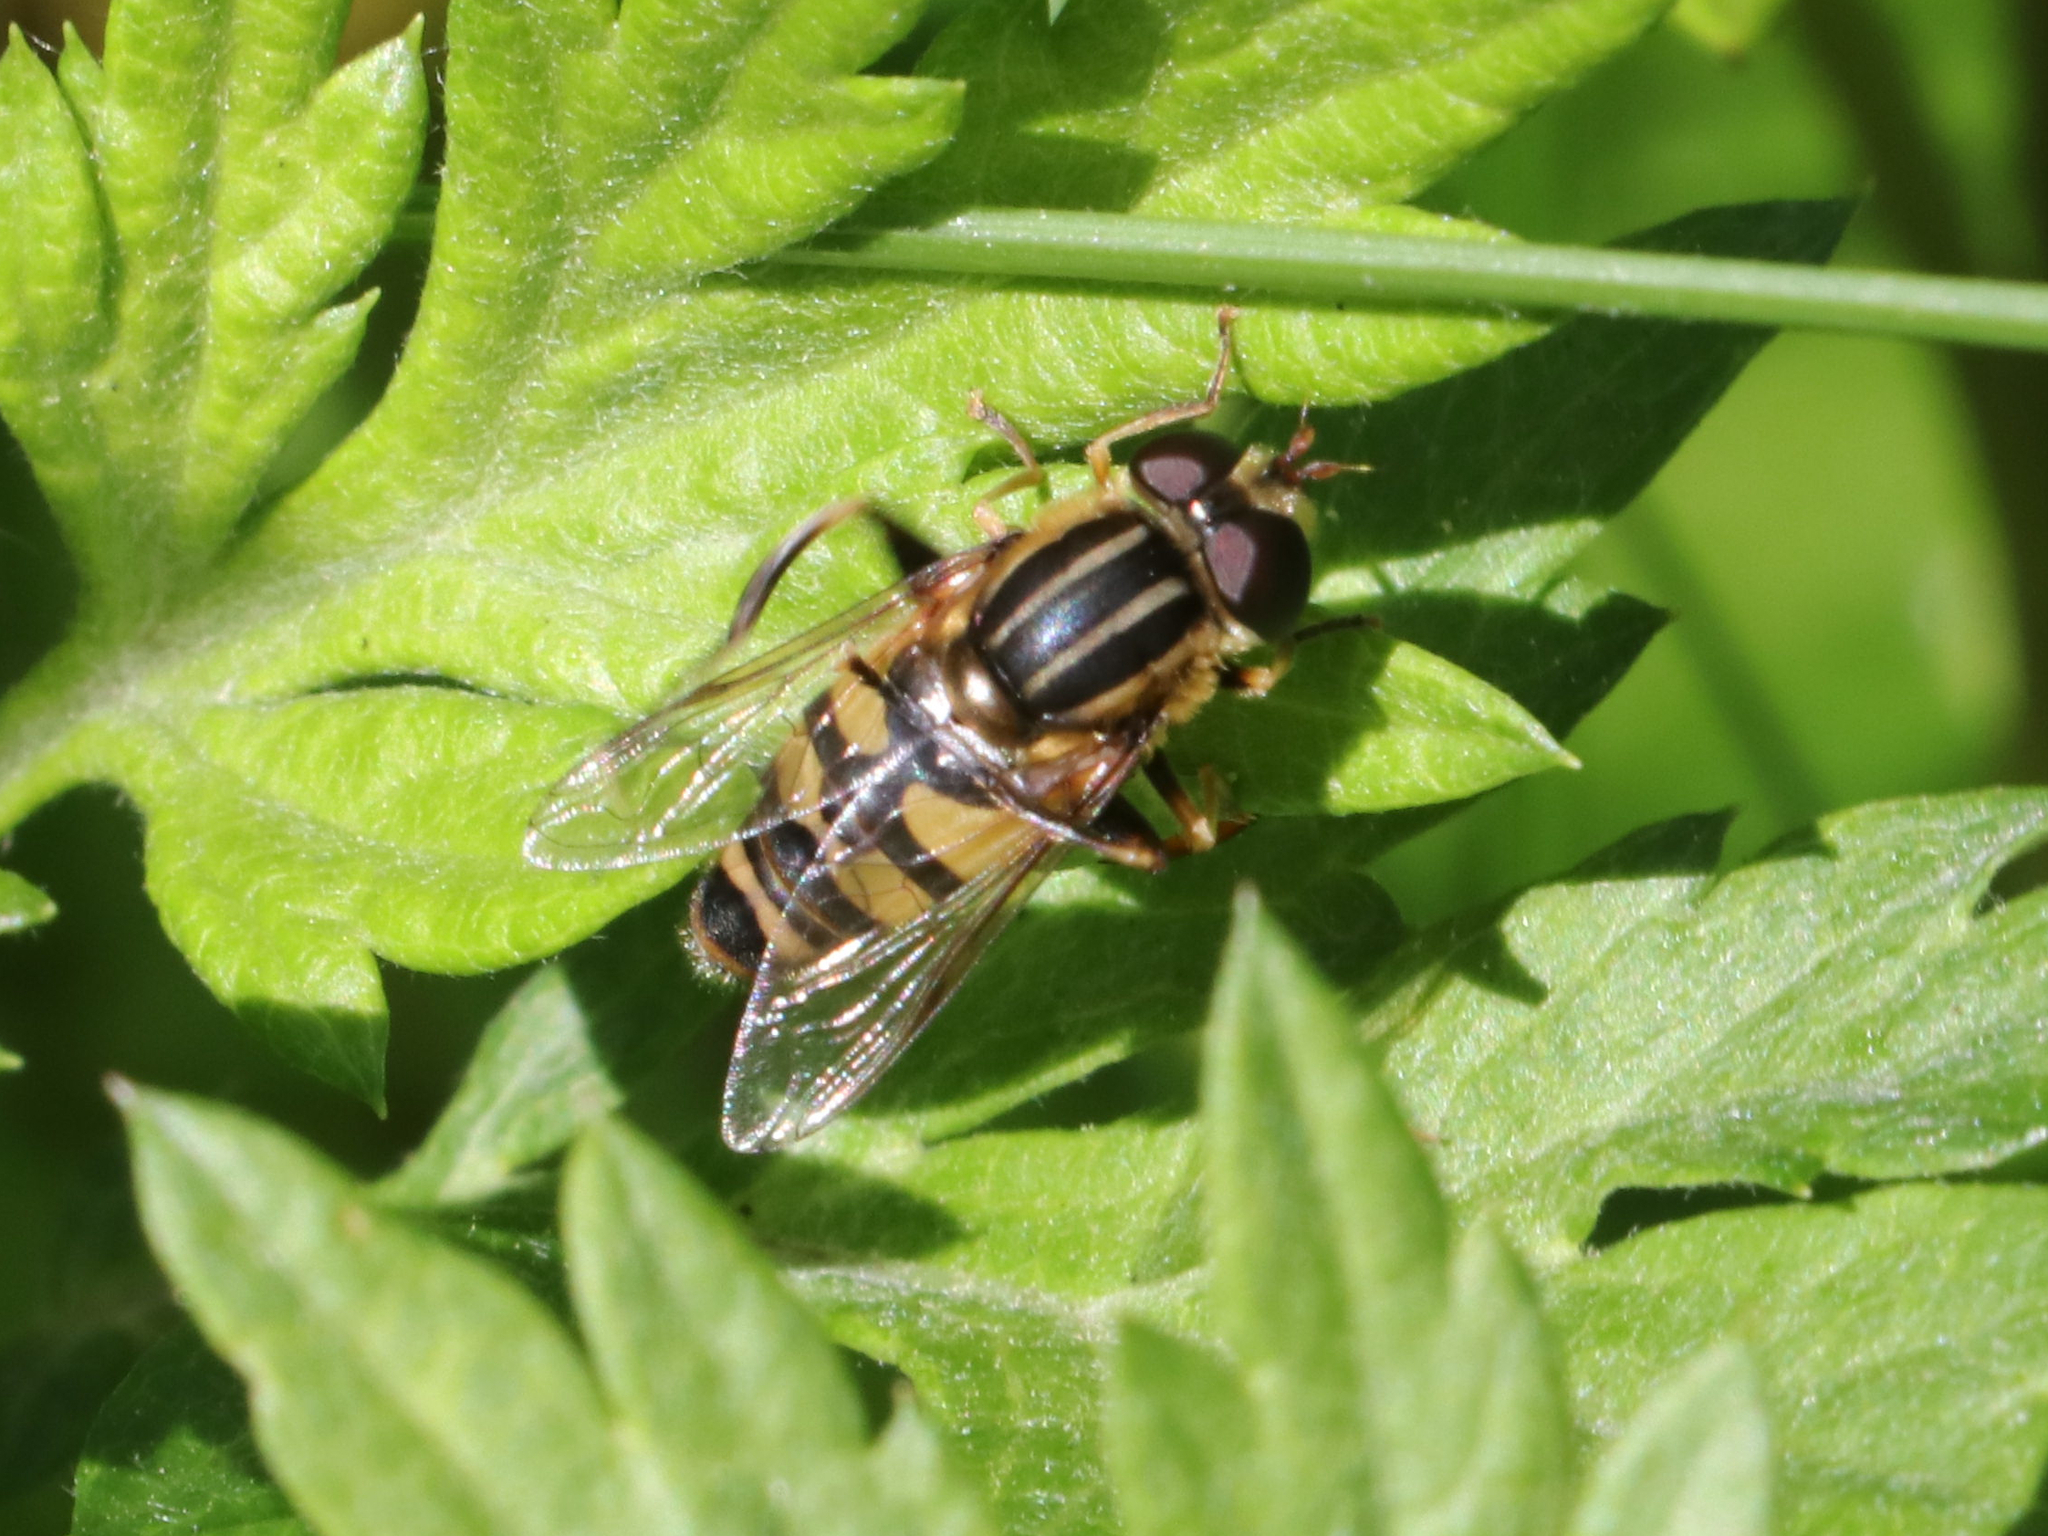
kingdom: Animalia
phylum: Arthropoda
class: Insecta
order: Diptera
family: Syrphidae
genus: Helophilus
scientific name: Helophilus fasciatus
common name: Narrow-headed marsh fly
